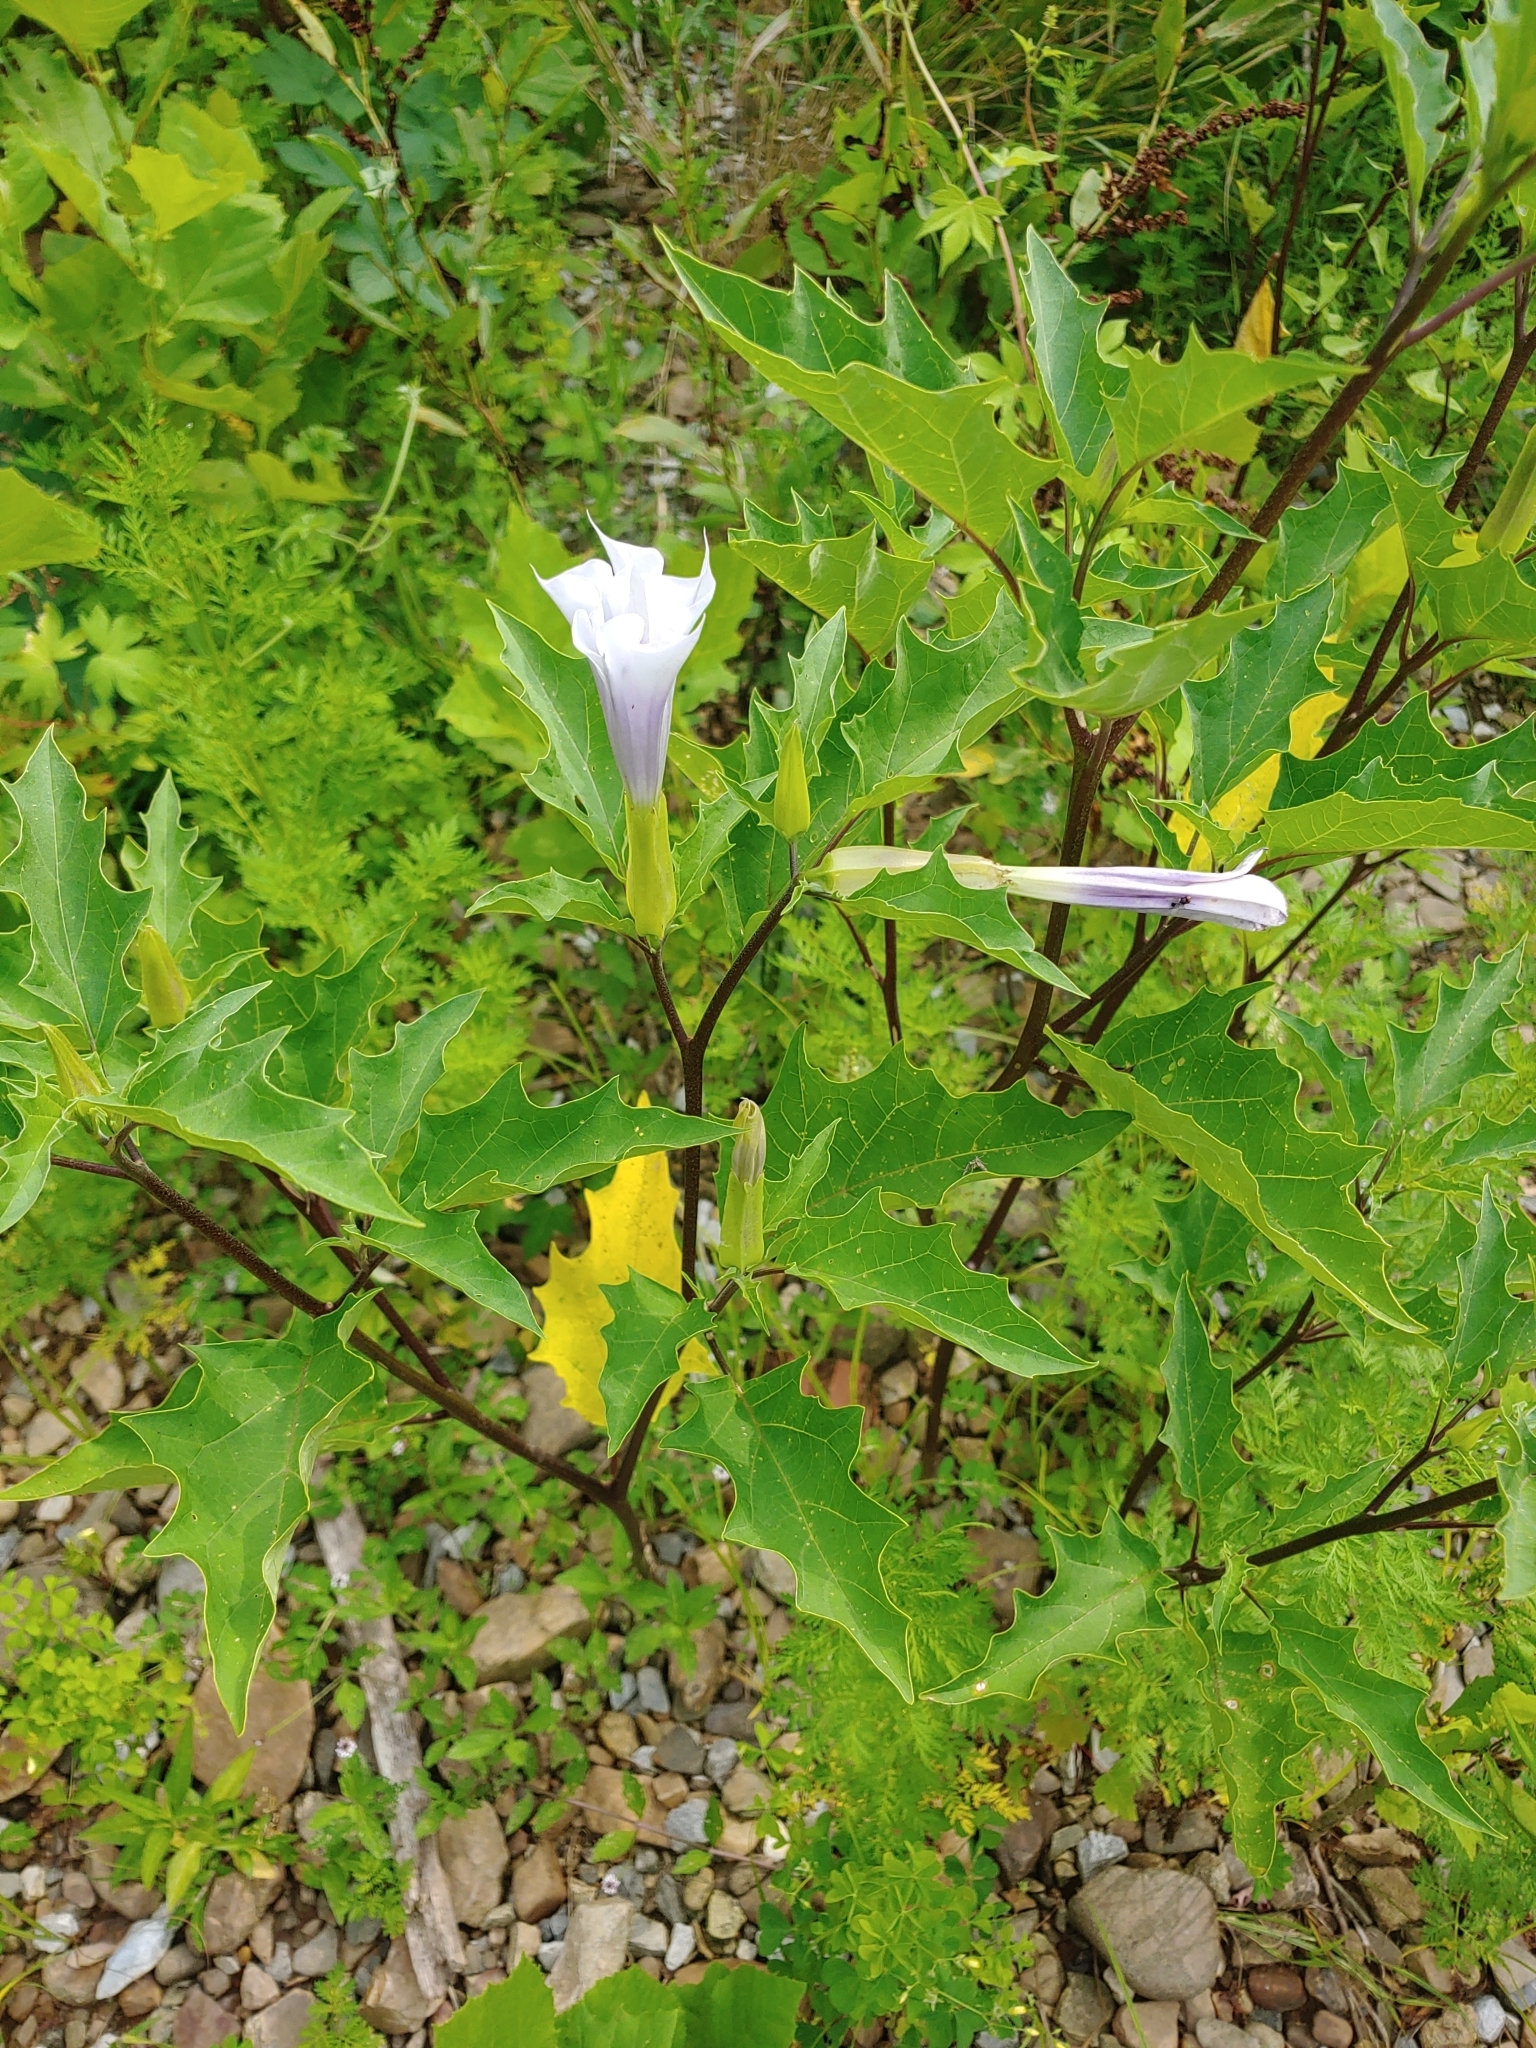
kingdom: Plantae
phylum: Tracheophyta
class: Magnoliopsida
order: Solanales
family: Solanaceae
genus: Datura
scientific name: Datura stramonium
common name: Thorn-apple
